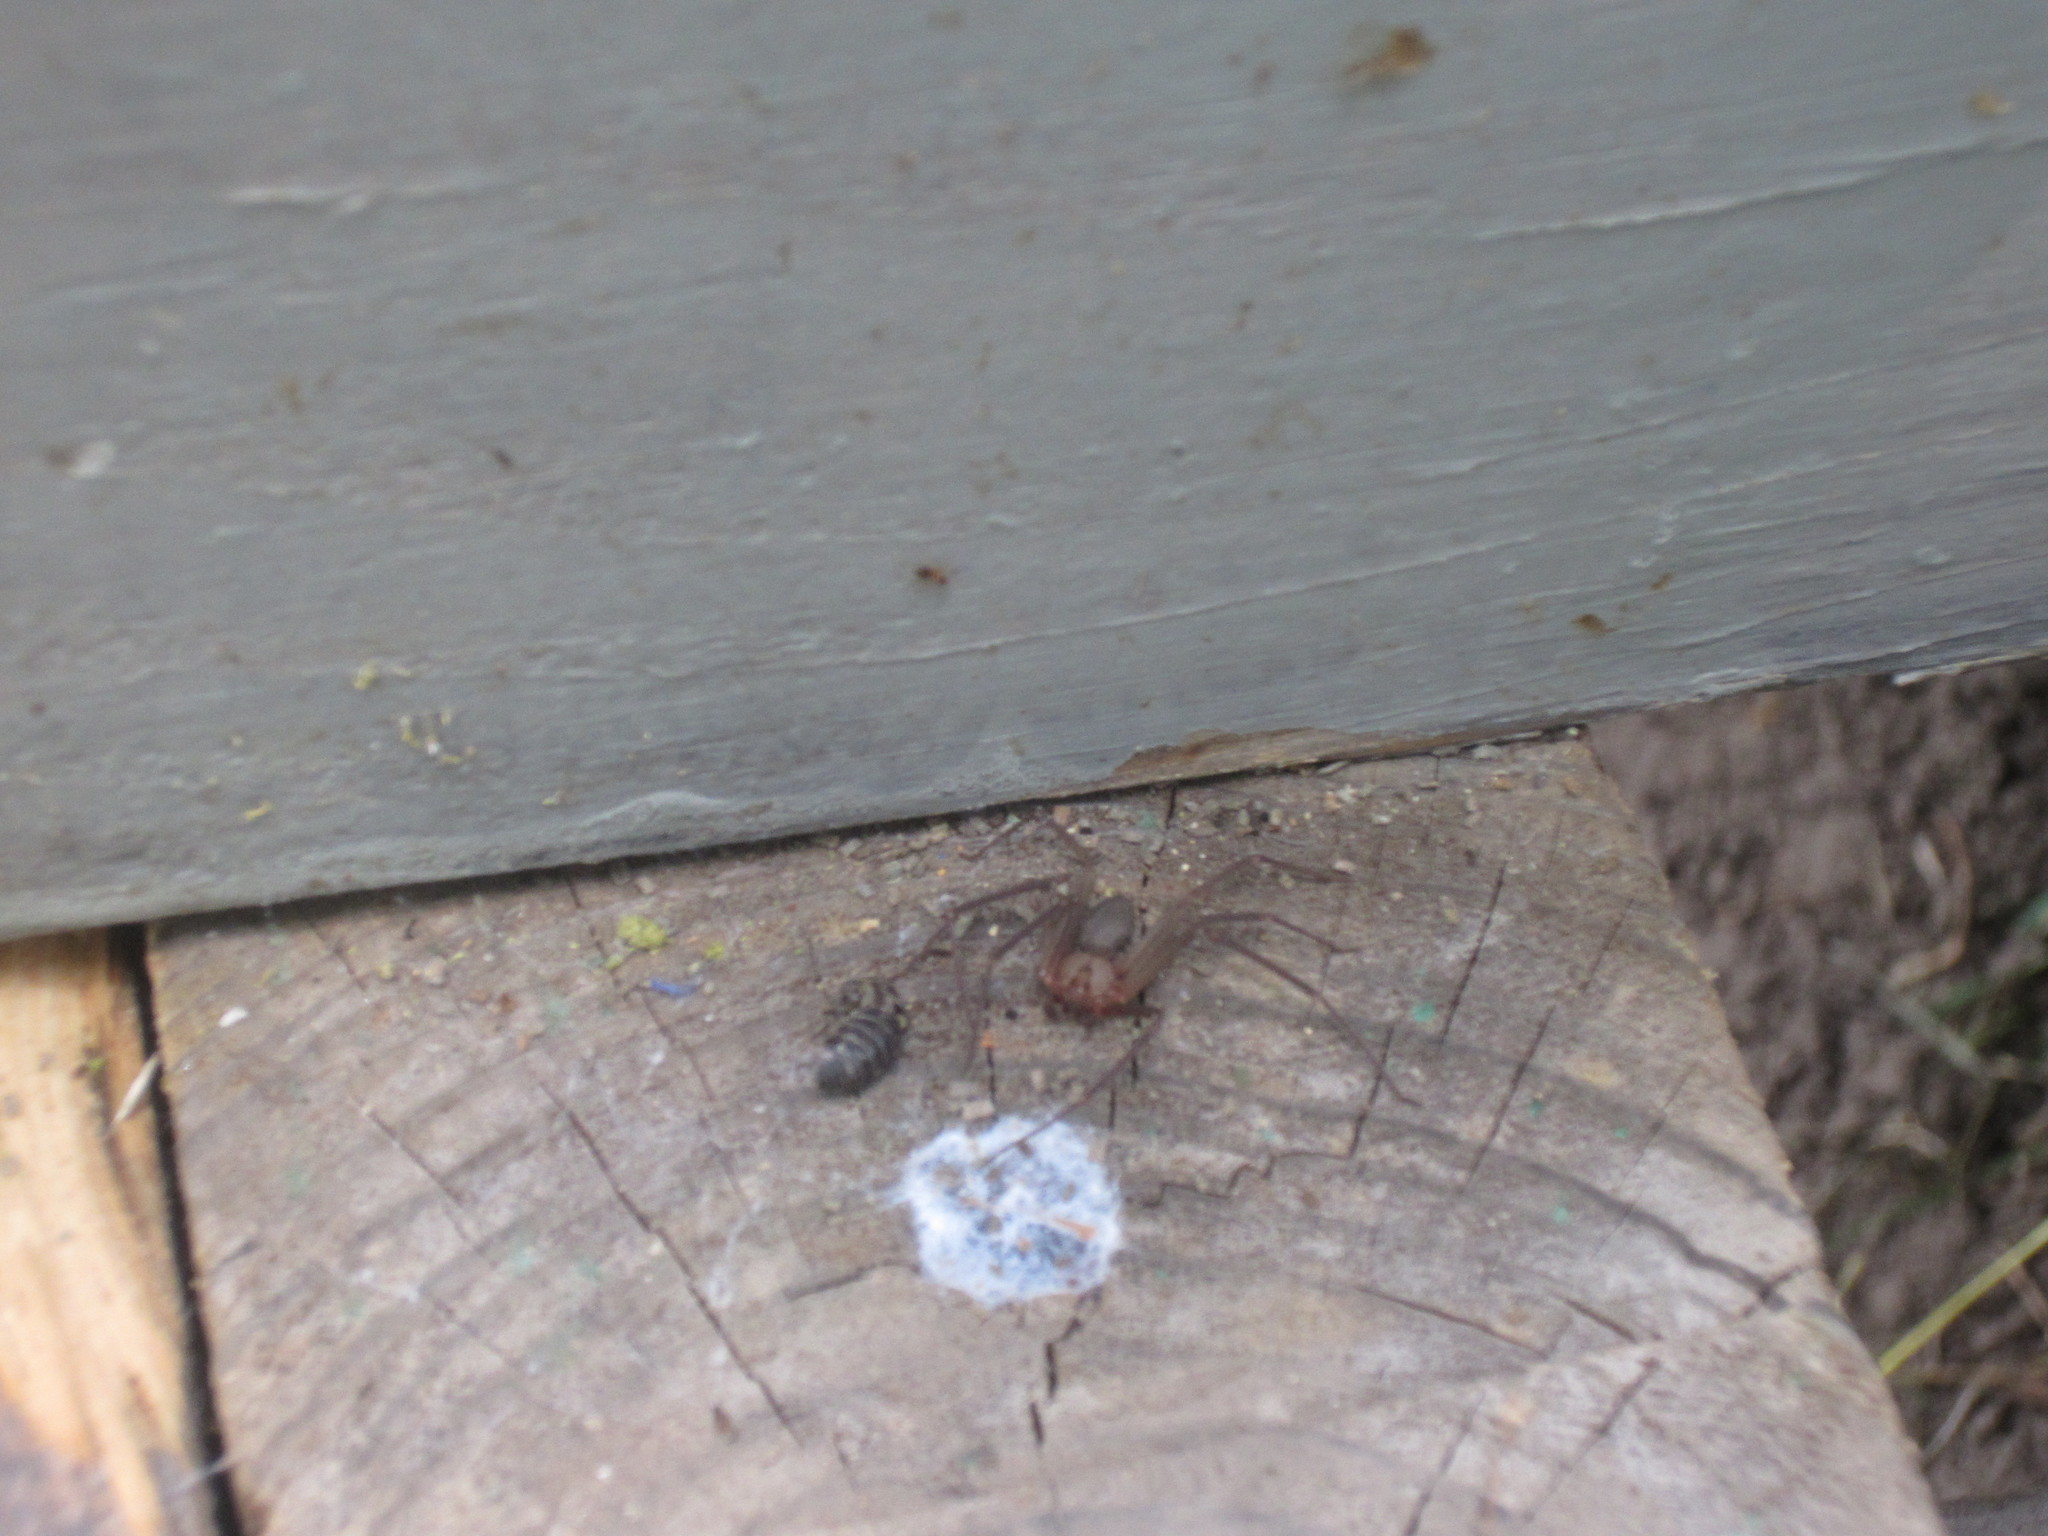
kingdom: Animalia
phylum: Arthropoda
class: Arachnida
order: Araneae
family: Sicariidae
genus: Loxosceles
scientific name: Loxosceles
